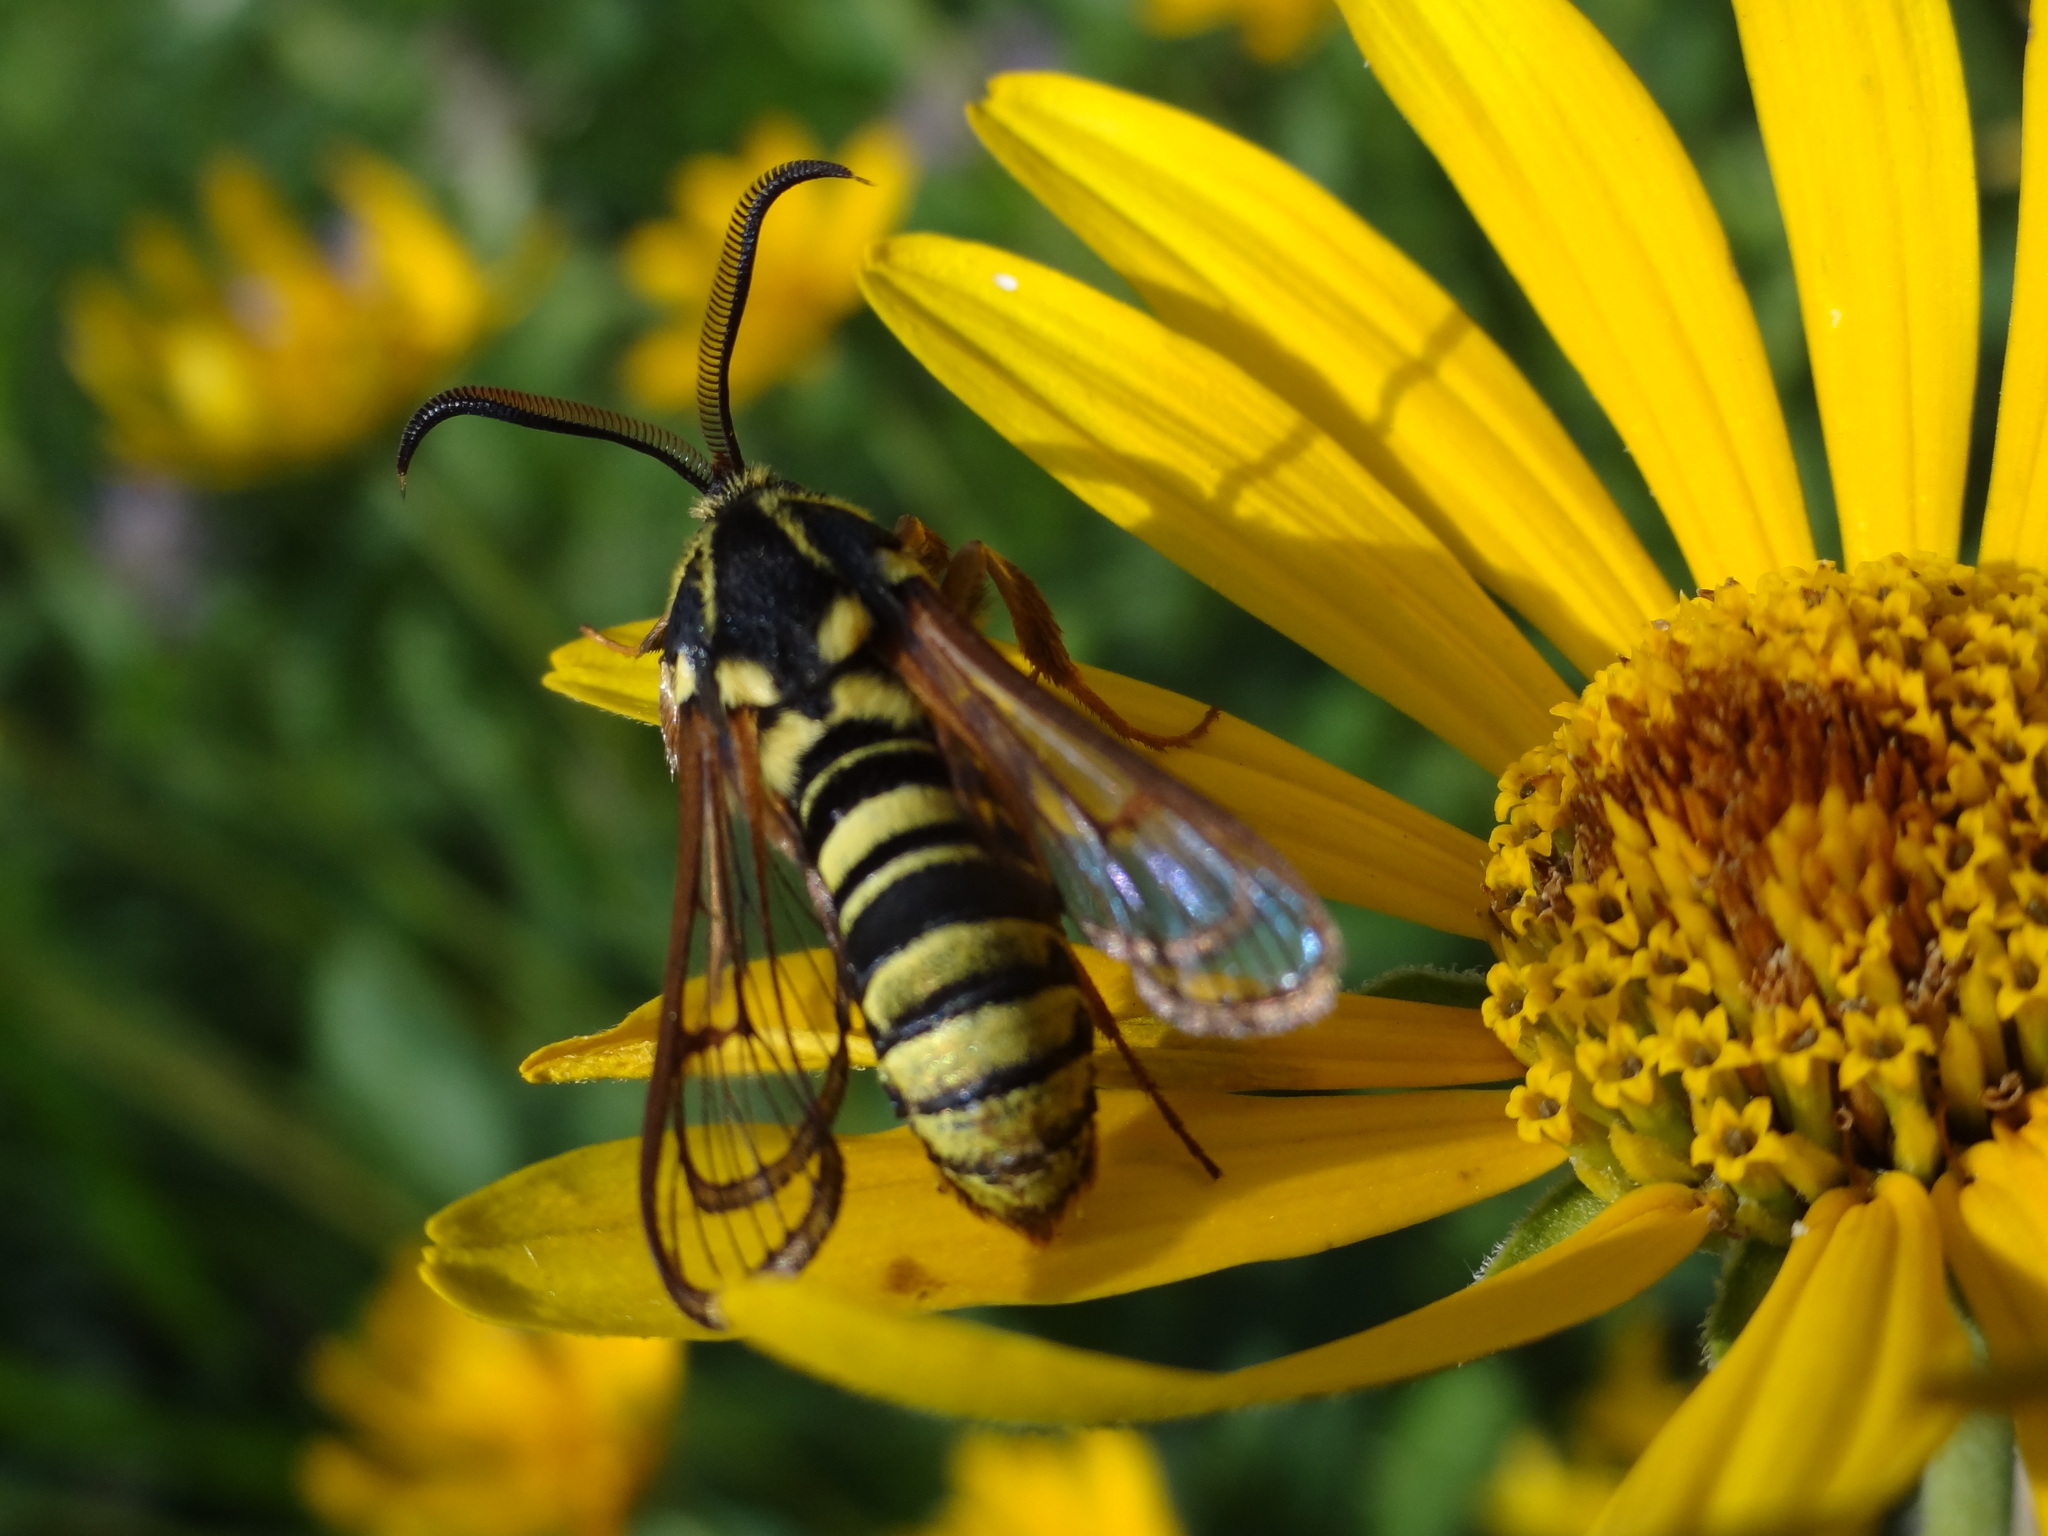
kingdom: Animalia
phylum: Arthropoda
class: Insecta
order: Lepidoptera
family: Sesiidae
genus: Sesia
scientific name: Sesia tibiale
